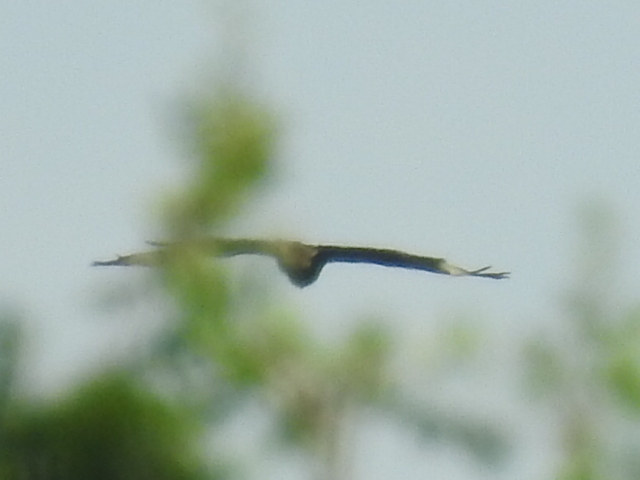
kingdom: Animalia
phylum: Chordata
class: Aves
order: Falconiformes
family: Falconidae
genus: Caracara
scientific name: Caracara plancus
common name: Southern caracara
